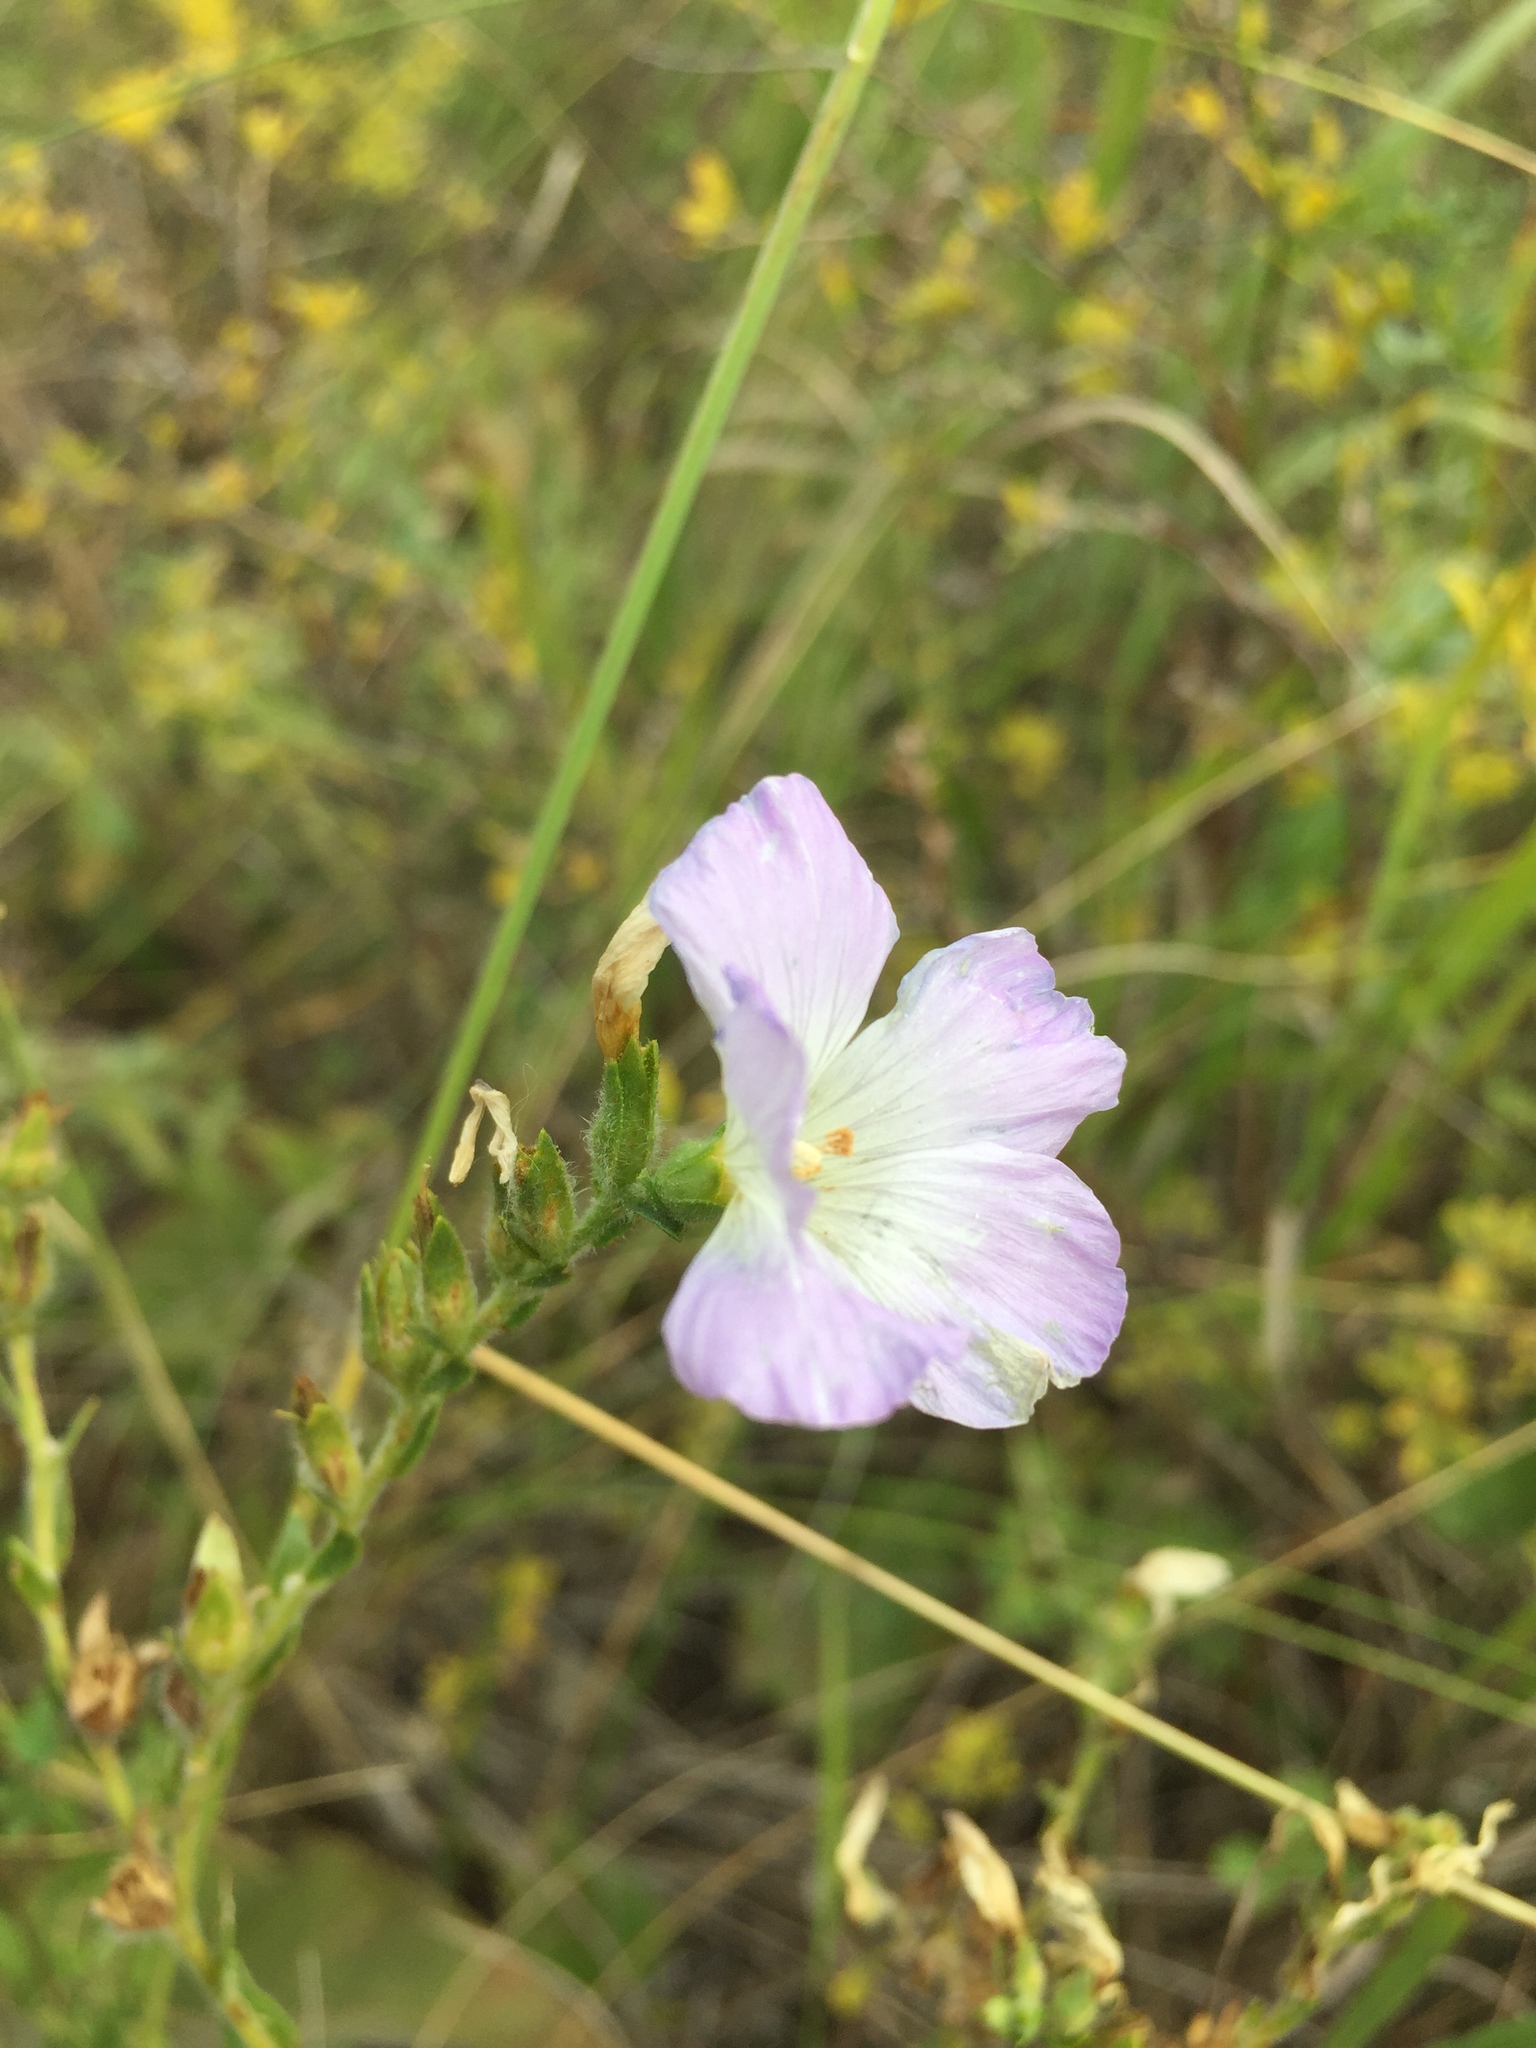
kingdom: Plantae
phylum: Tracheophyta
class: Magnoliopsida
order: Malpighiales
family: Linaceae
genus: Linum
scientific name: Linum hirsutum
